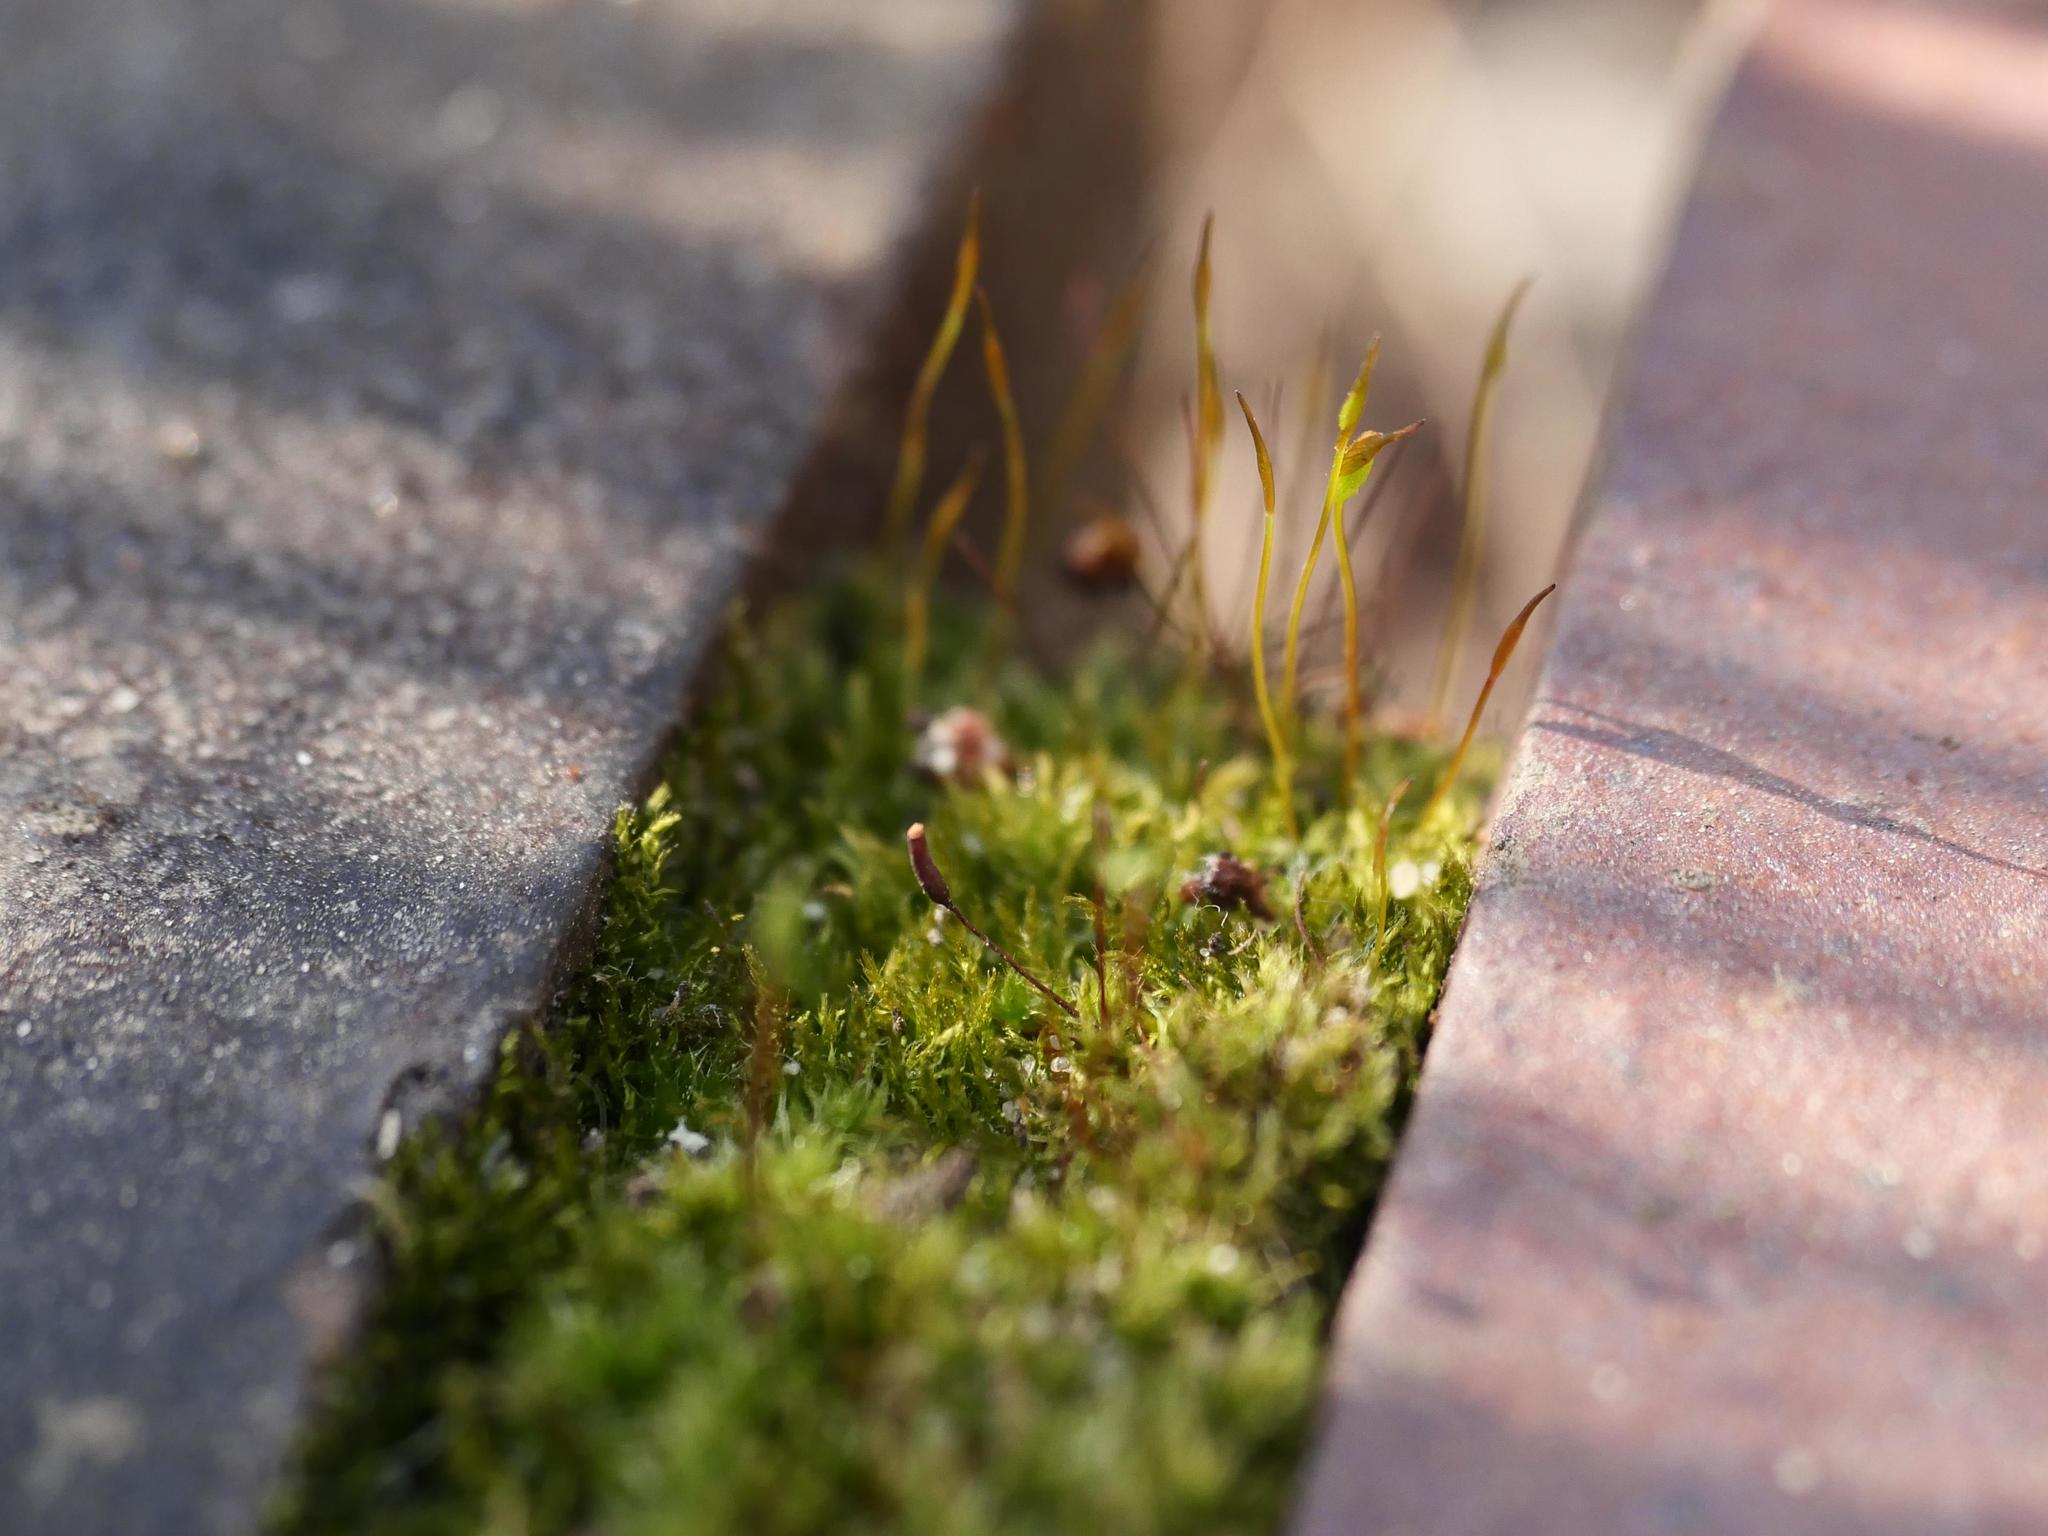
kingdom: Plantae
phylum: Bryophyta
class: Bryopsida
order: Pottiales
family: Pottiaceae
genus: Tortula
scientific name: Tortula muralis
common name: Wall screw-moss
